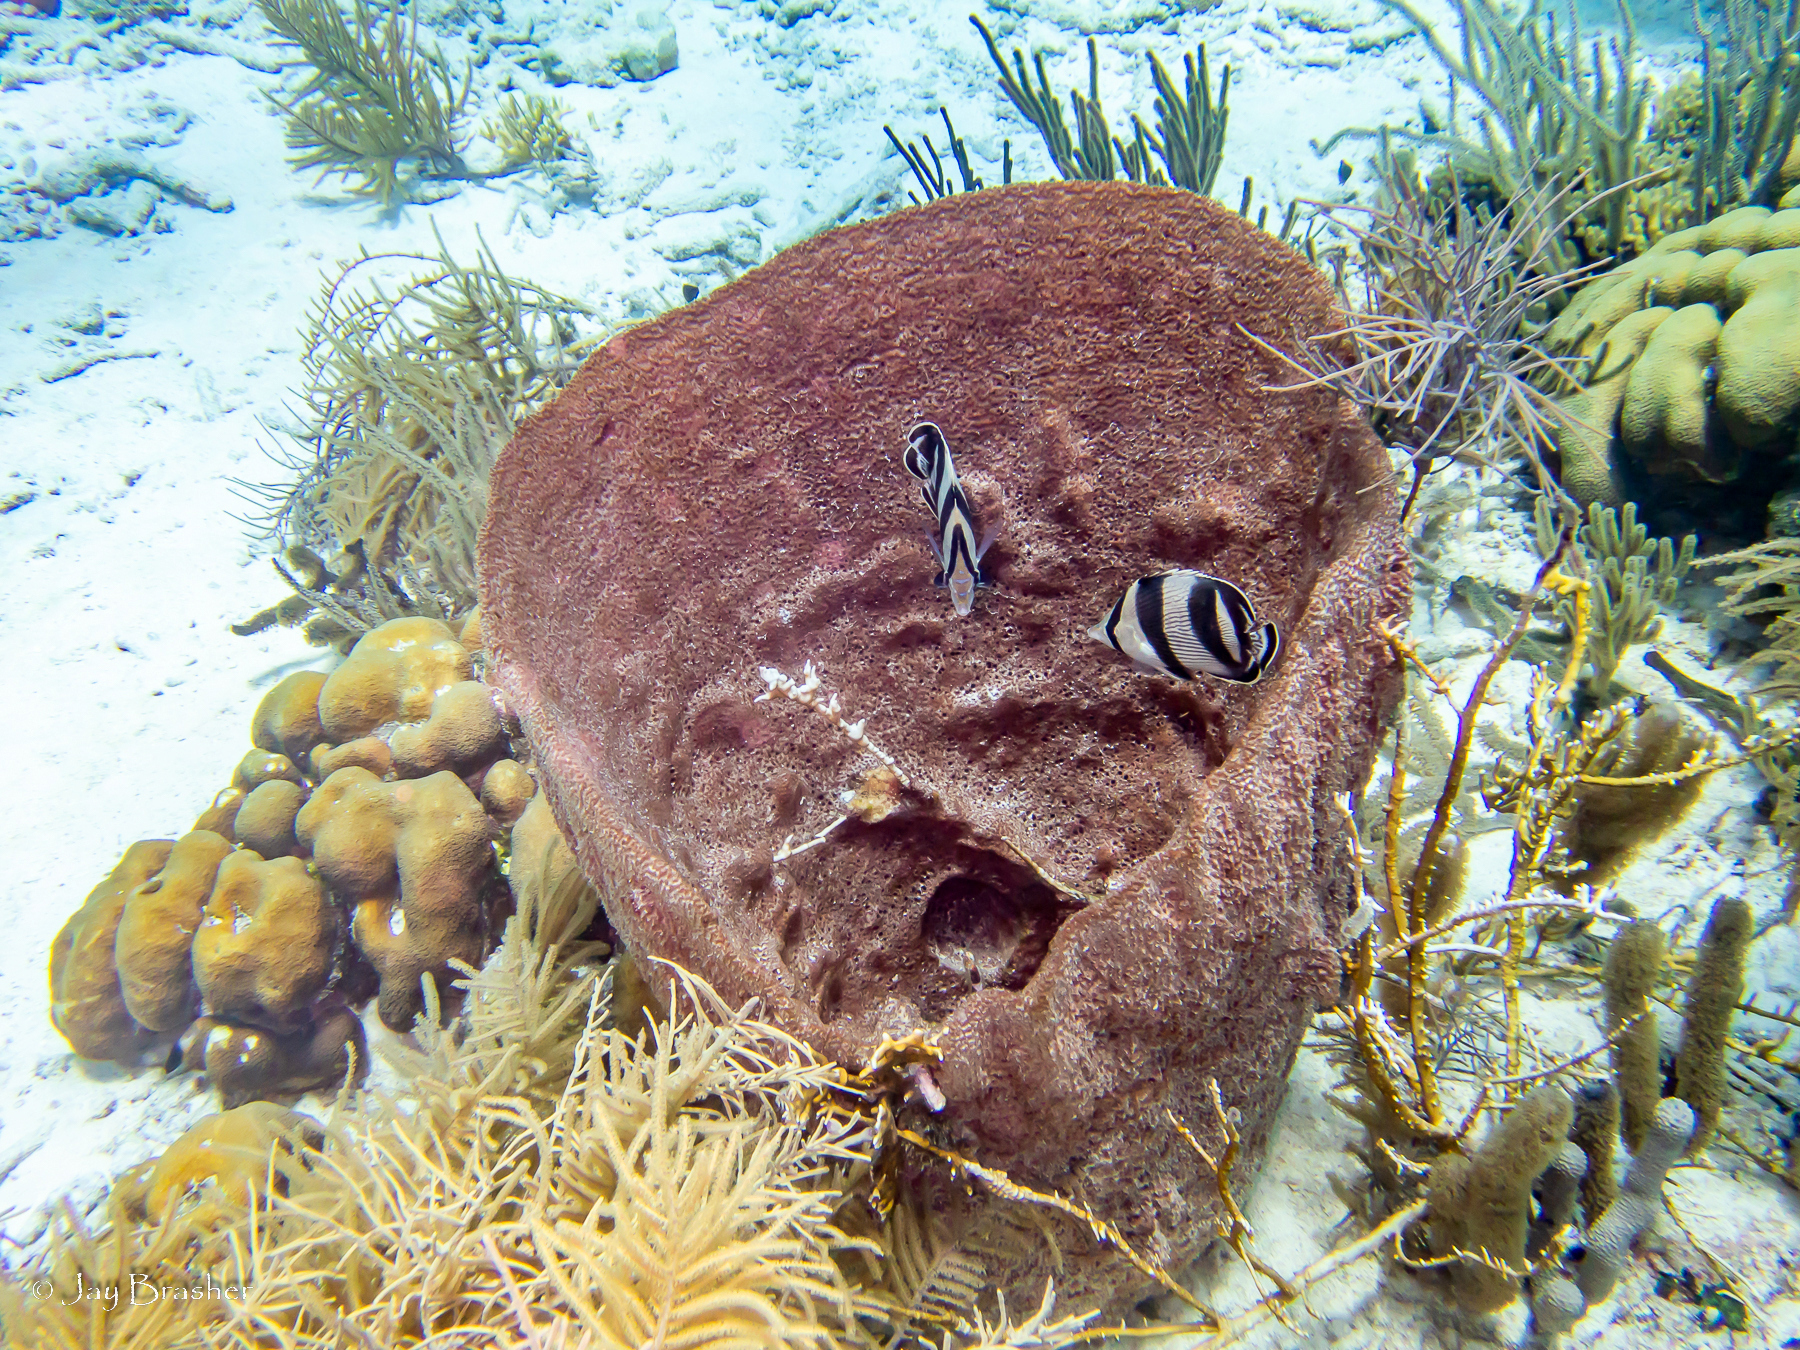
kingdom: Animalia
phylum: Chordata
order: Perciformes
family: Chaetodontidae
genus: Chaetodon
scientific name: Chaetodon striatus
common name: Banded butterflyfish
